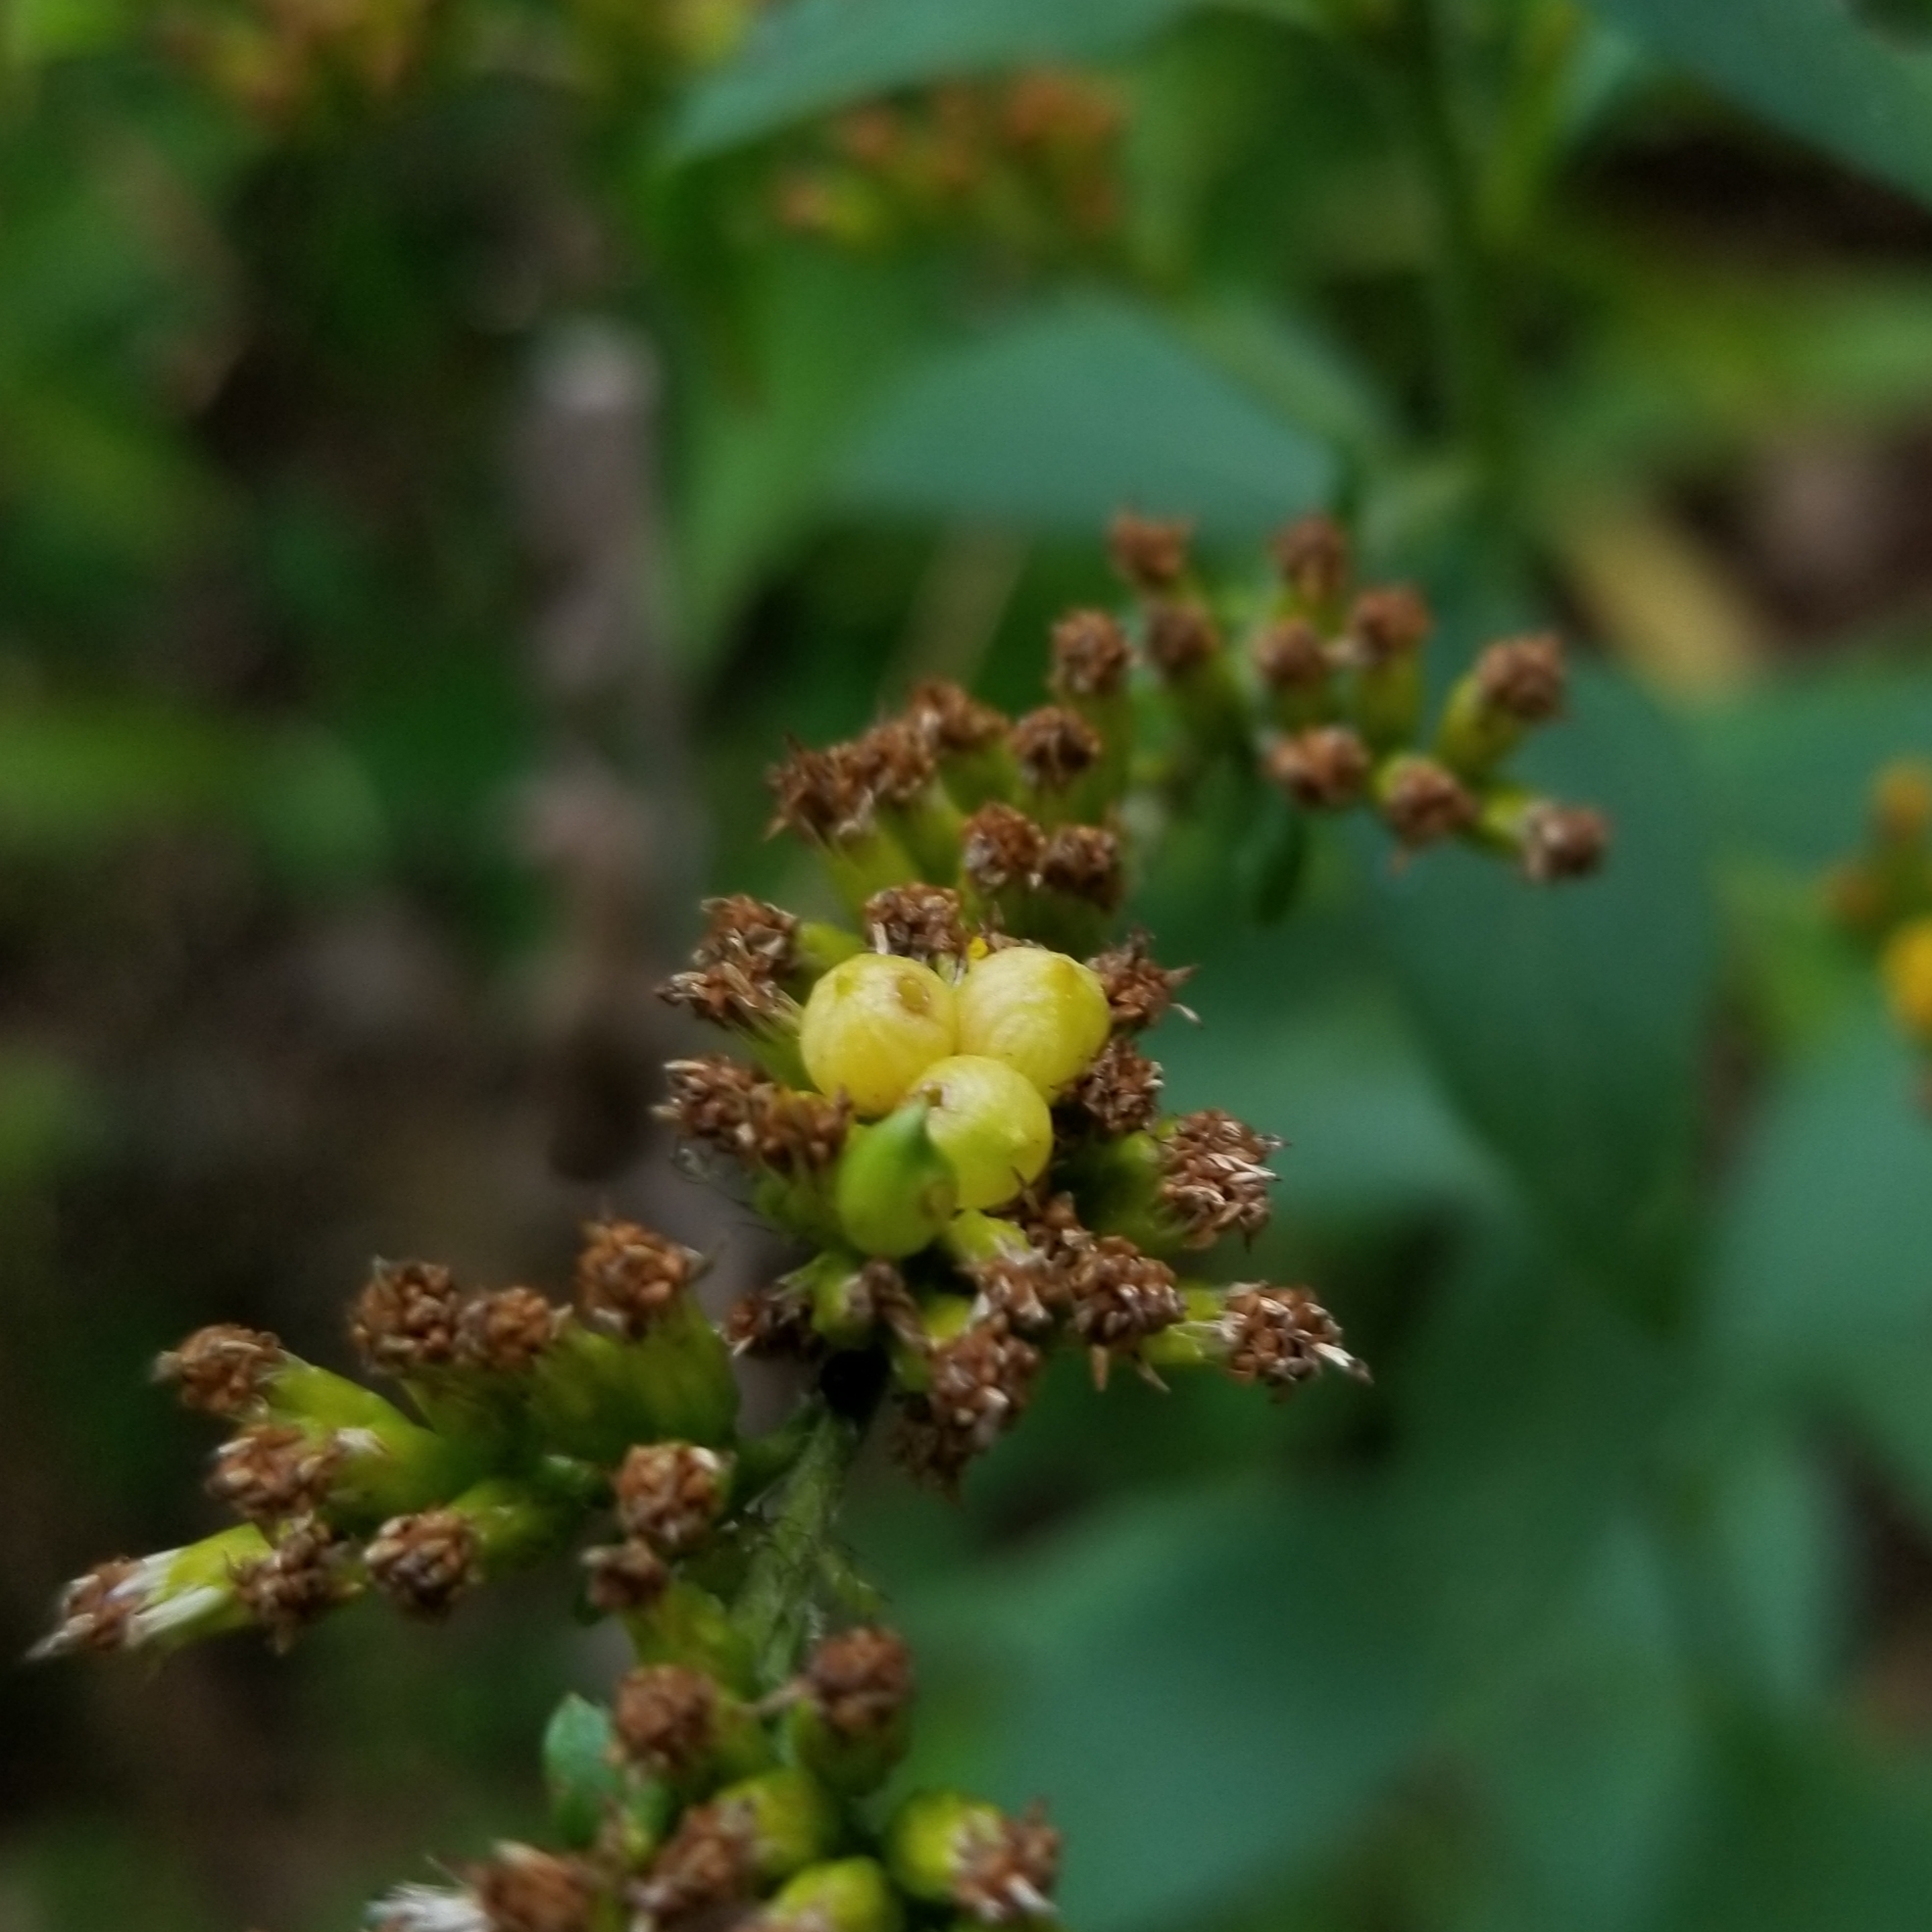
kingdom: Animalia
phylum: Arthropoda
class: Insecta
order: Diptera
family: Cecidomyiidae
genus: Schizomyia
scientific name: Schizomyia racemicola
